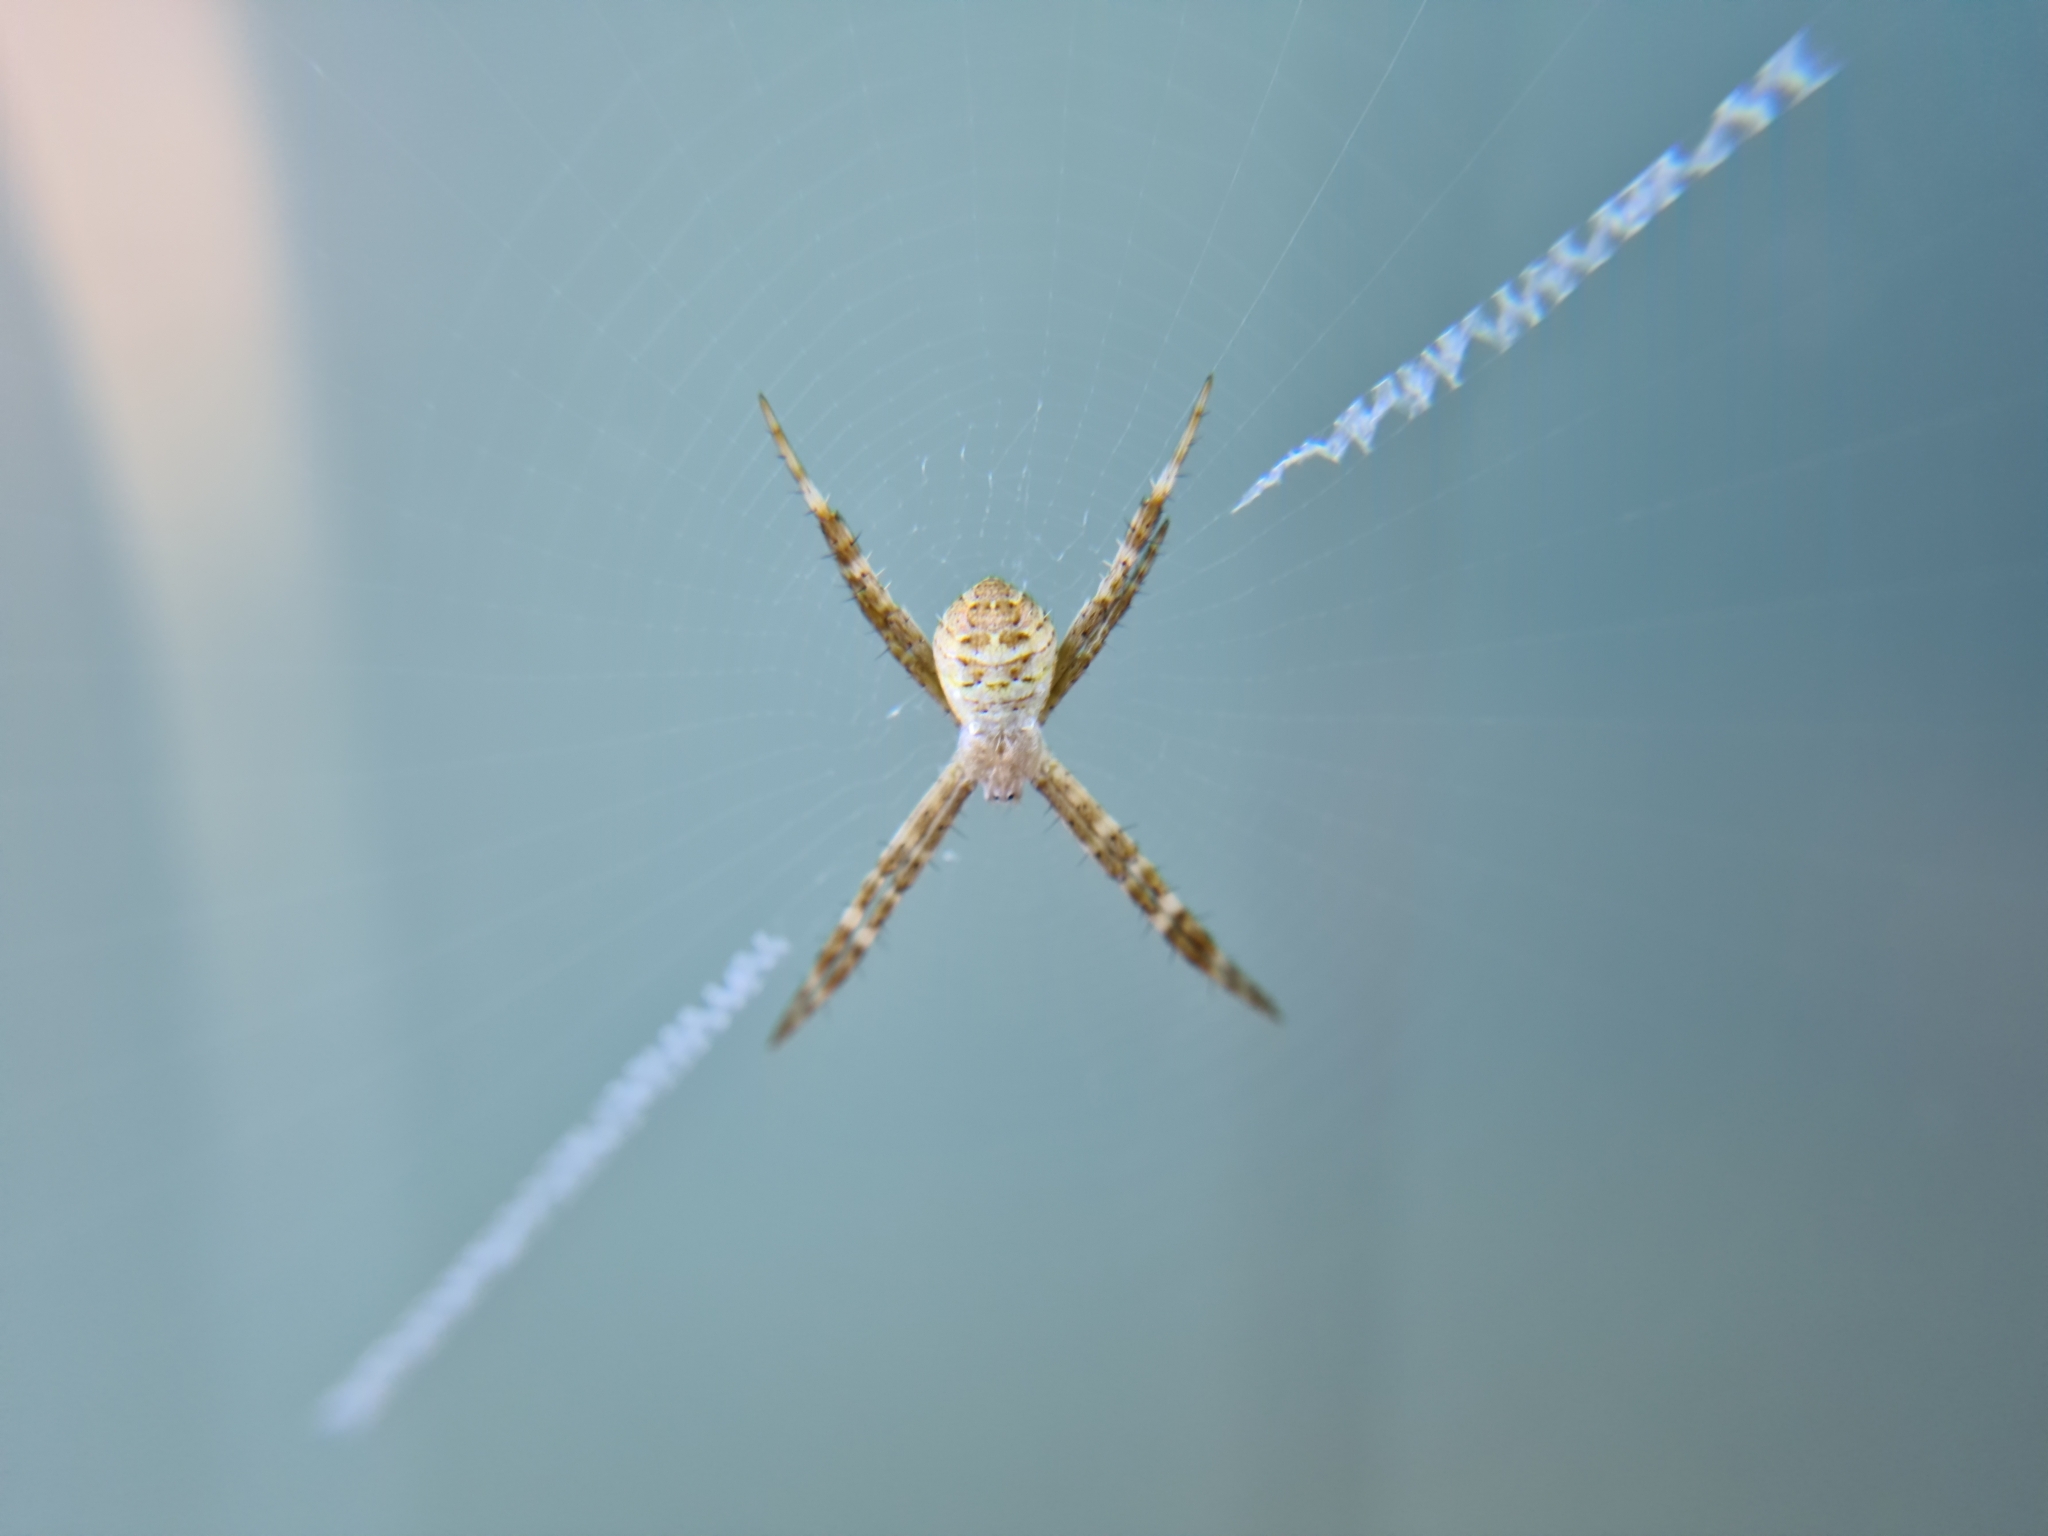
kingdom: Animalia
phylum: Arthropoda
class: Arachnida
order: Araneae
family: Araneidae
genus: Argiope
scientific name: Argiope keyserlingi
